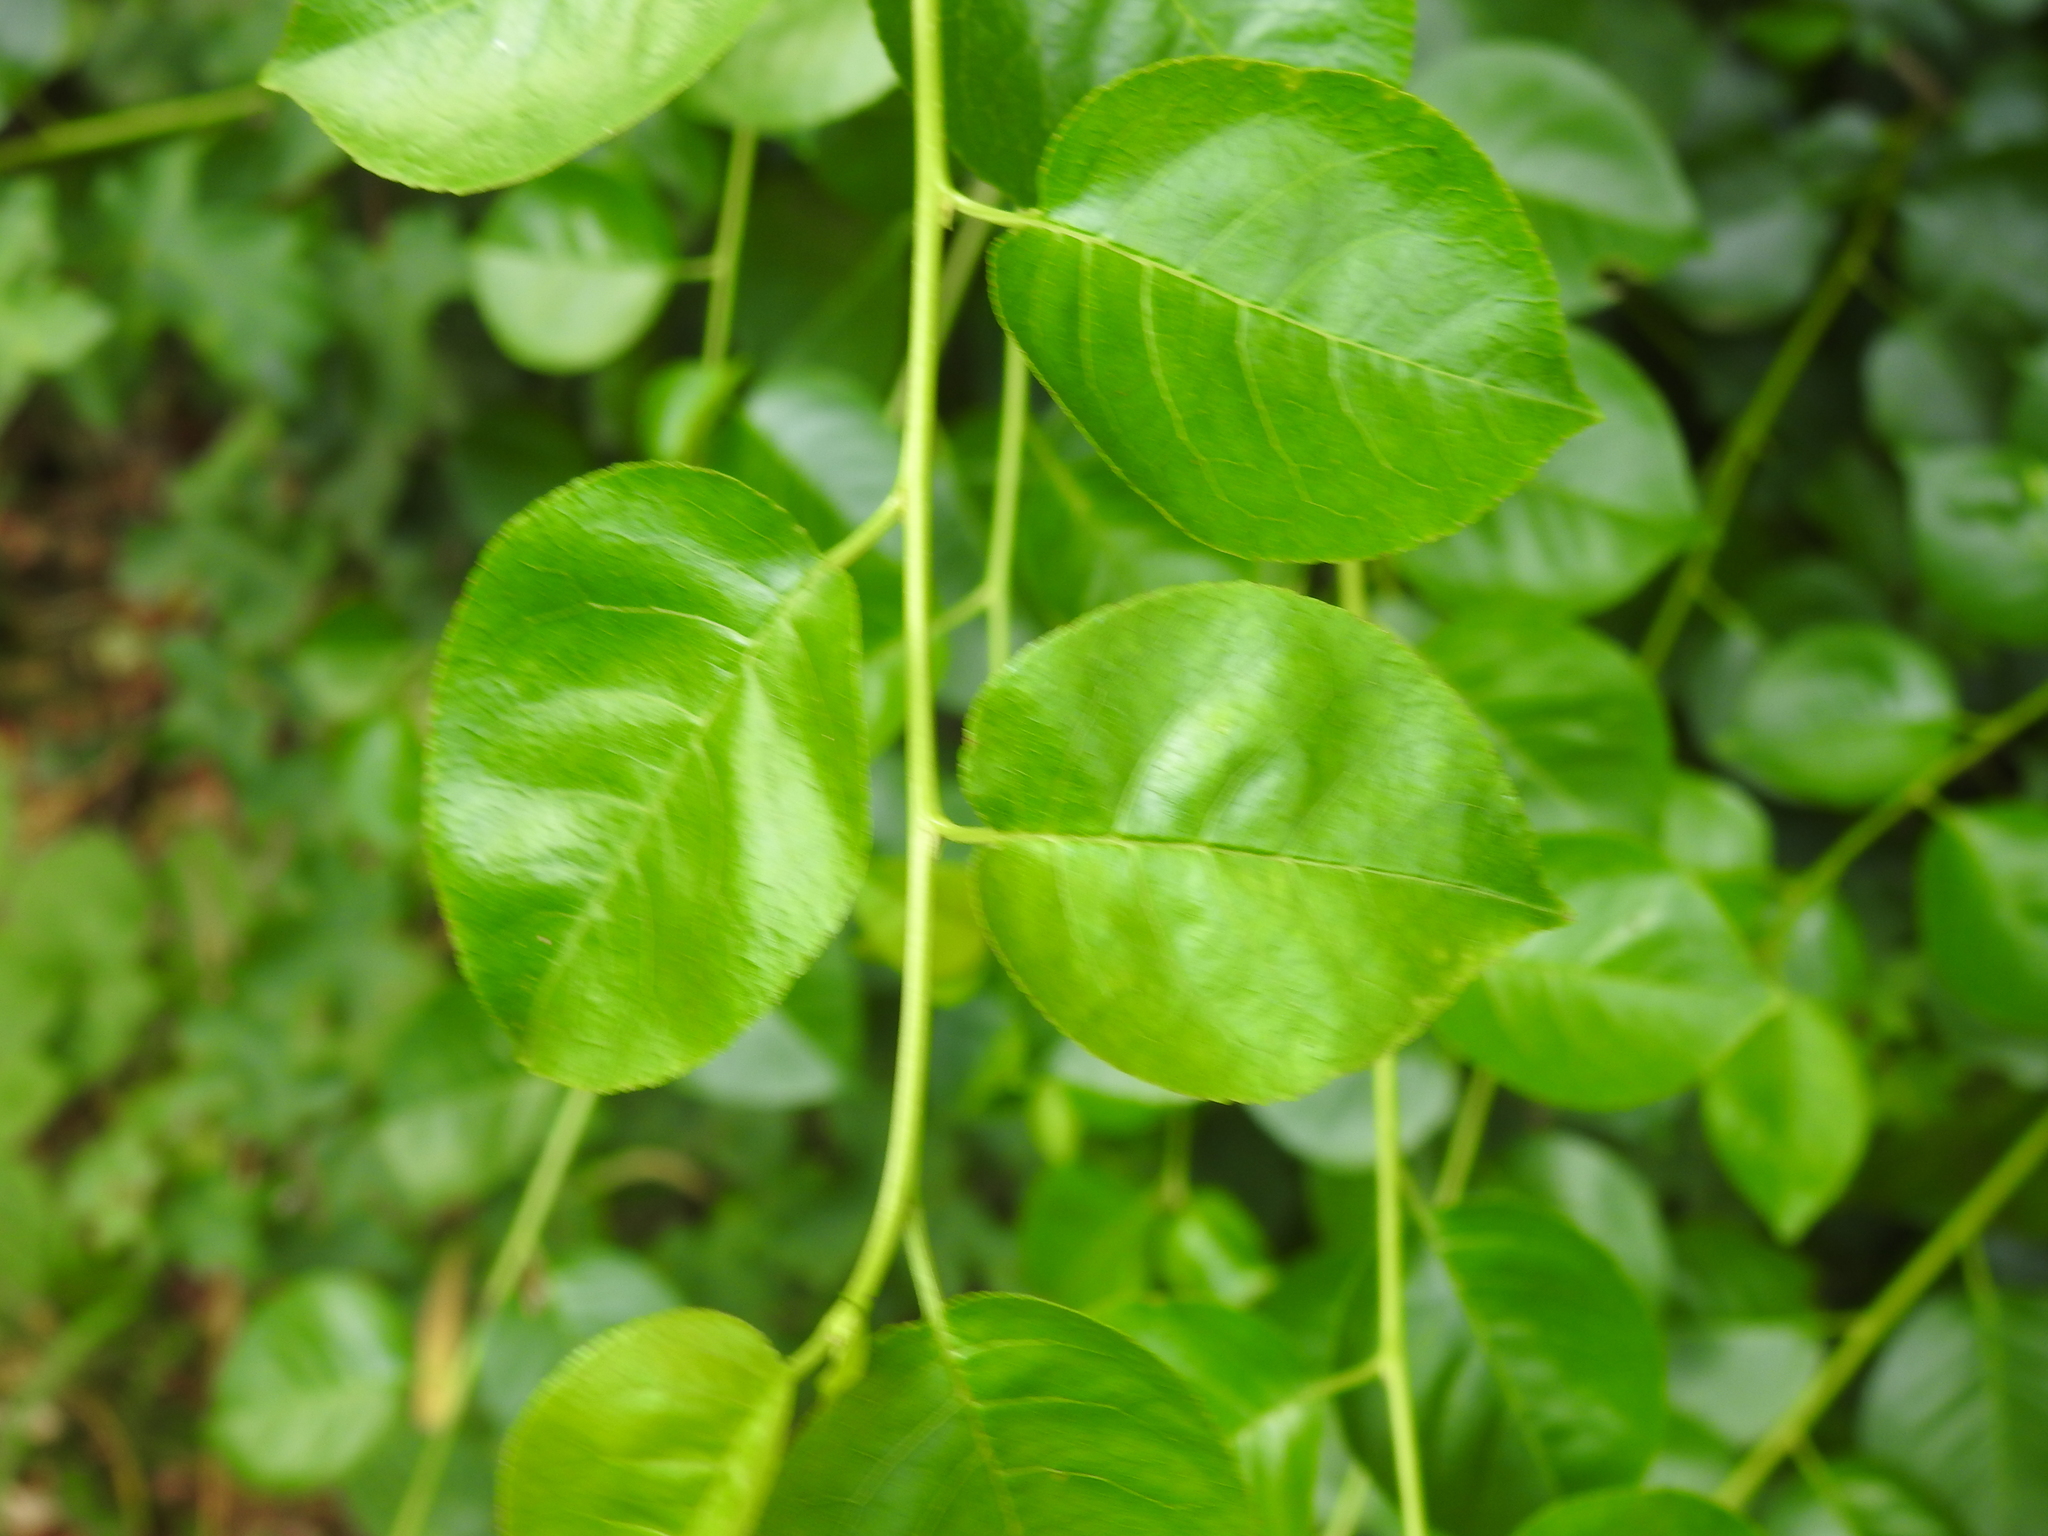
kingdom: Plantae
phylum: Tracheophyta
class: Magnoliopsida
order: Rosales
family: Rosaceae
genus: Prunus
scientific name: Prunus mahaleb
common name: Mahaleb cherry
